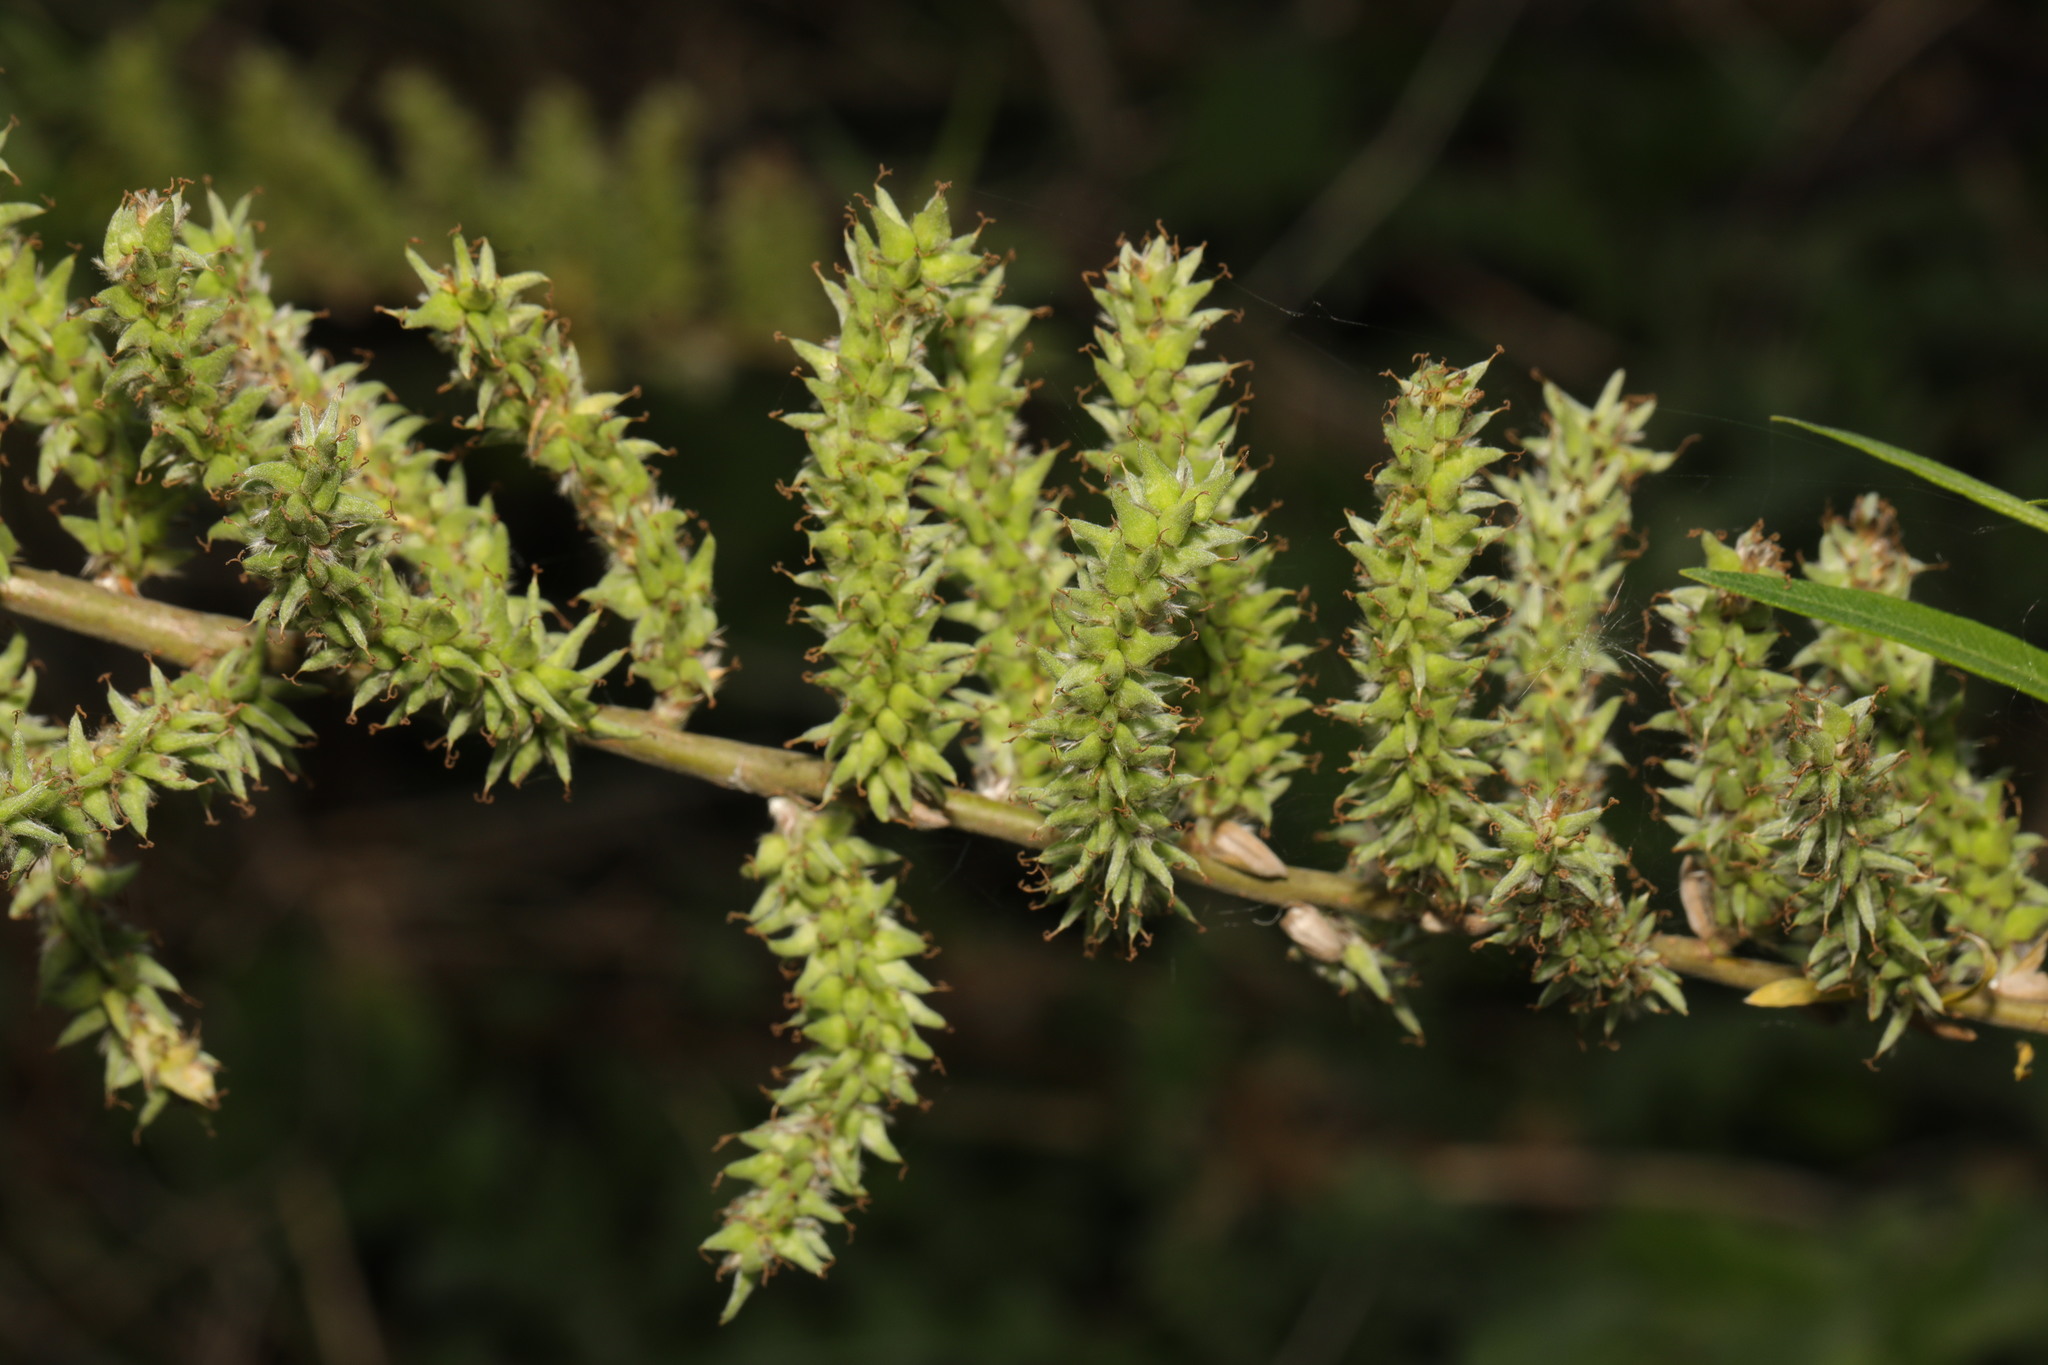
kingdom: Plantae
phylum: Tracheophyta
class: Magnoliopsida
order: Malpighiales
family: Salicaceae
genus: Salix
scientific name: Salix viminalis
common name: Osier
